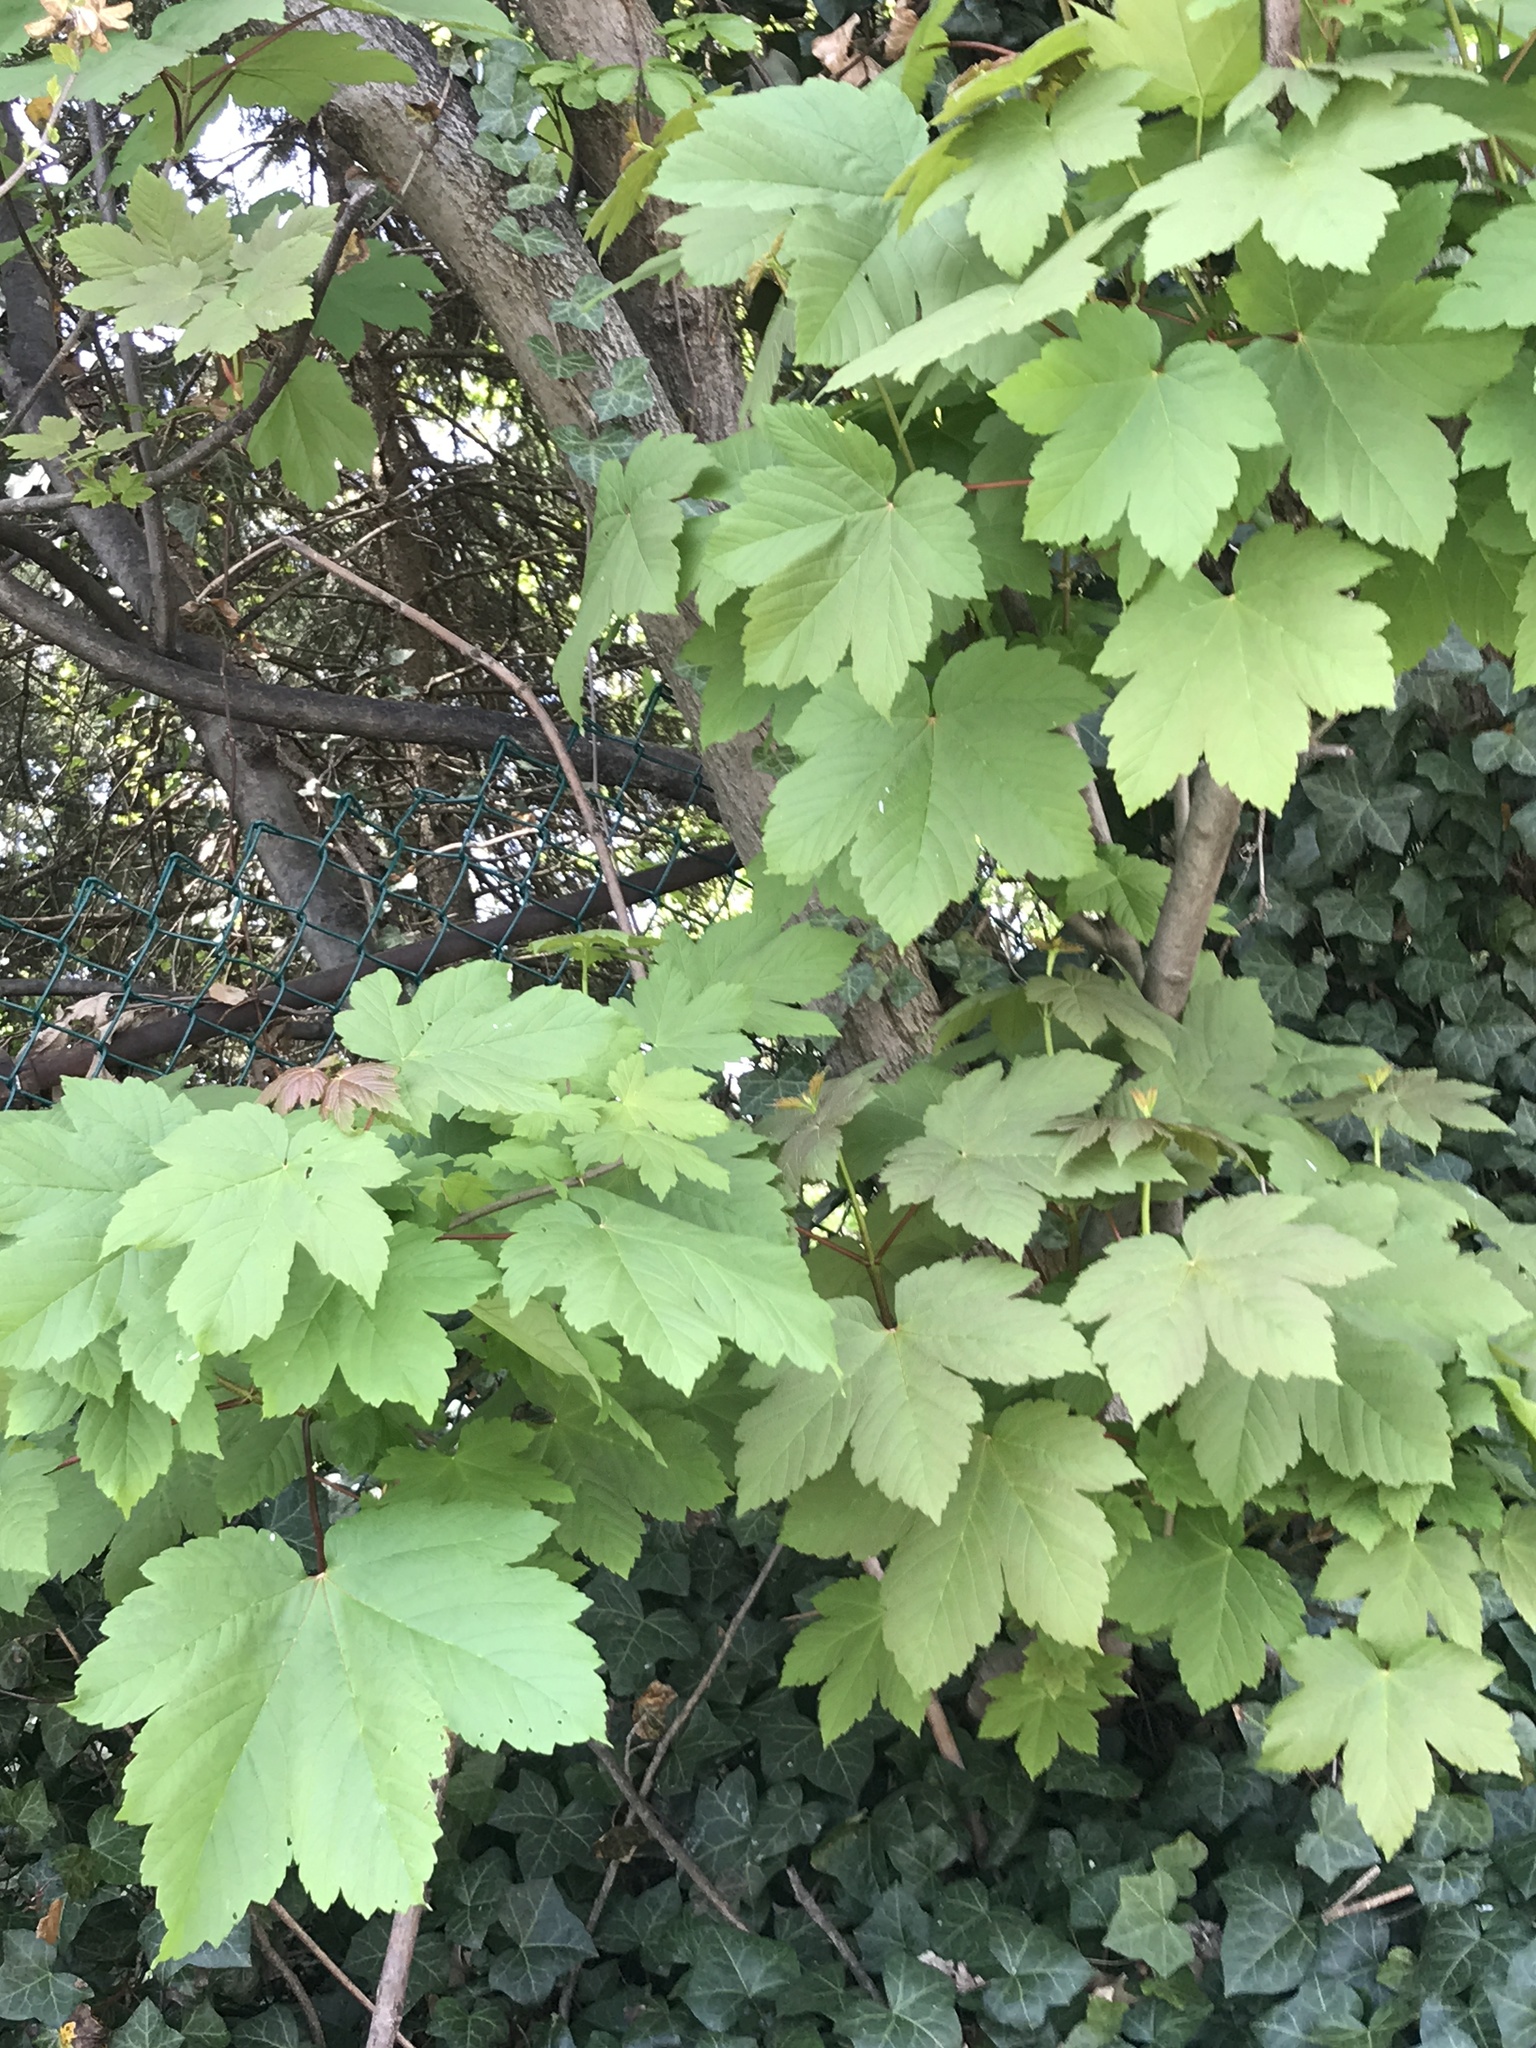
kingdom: Plantae
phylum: Tracheophyta
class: Magnoliopsida
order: Sapindales
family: Sapindaceae
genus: Acer
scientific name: Acer pseudoplatanus
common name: Sycamore
